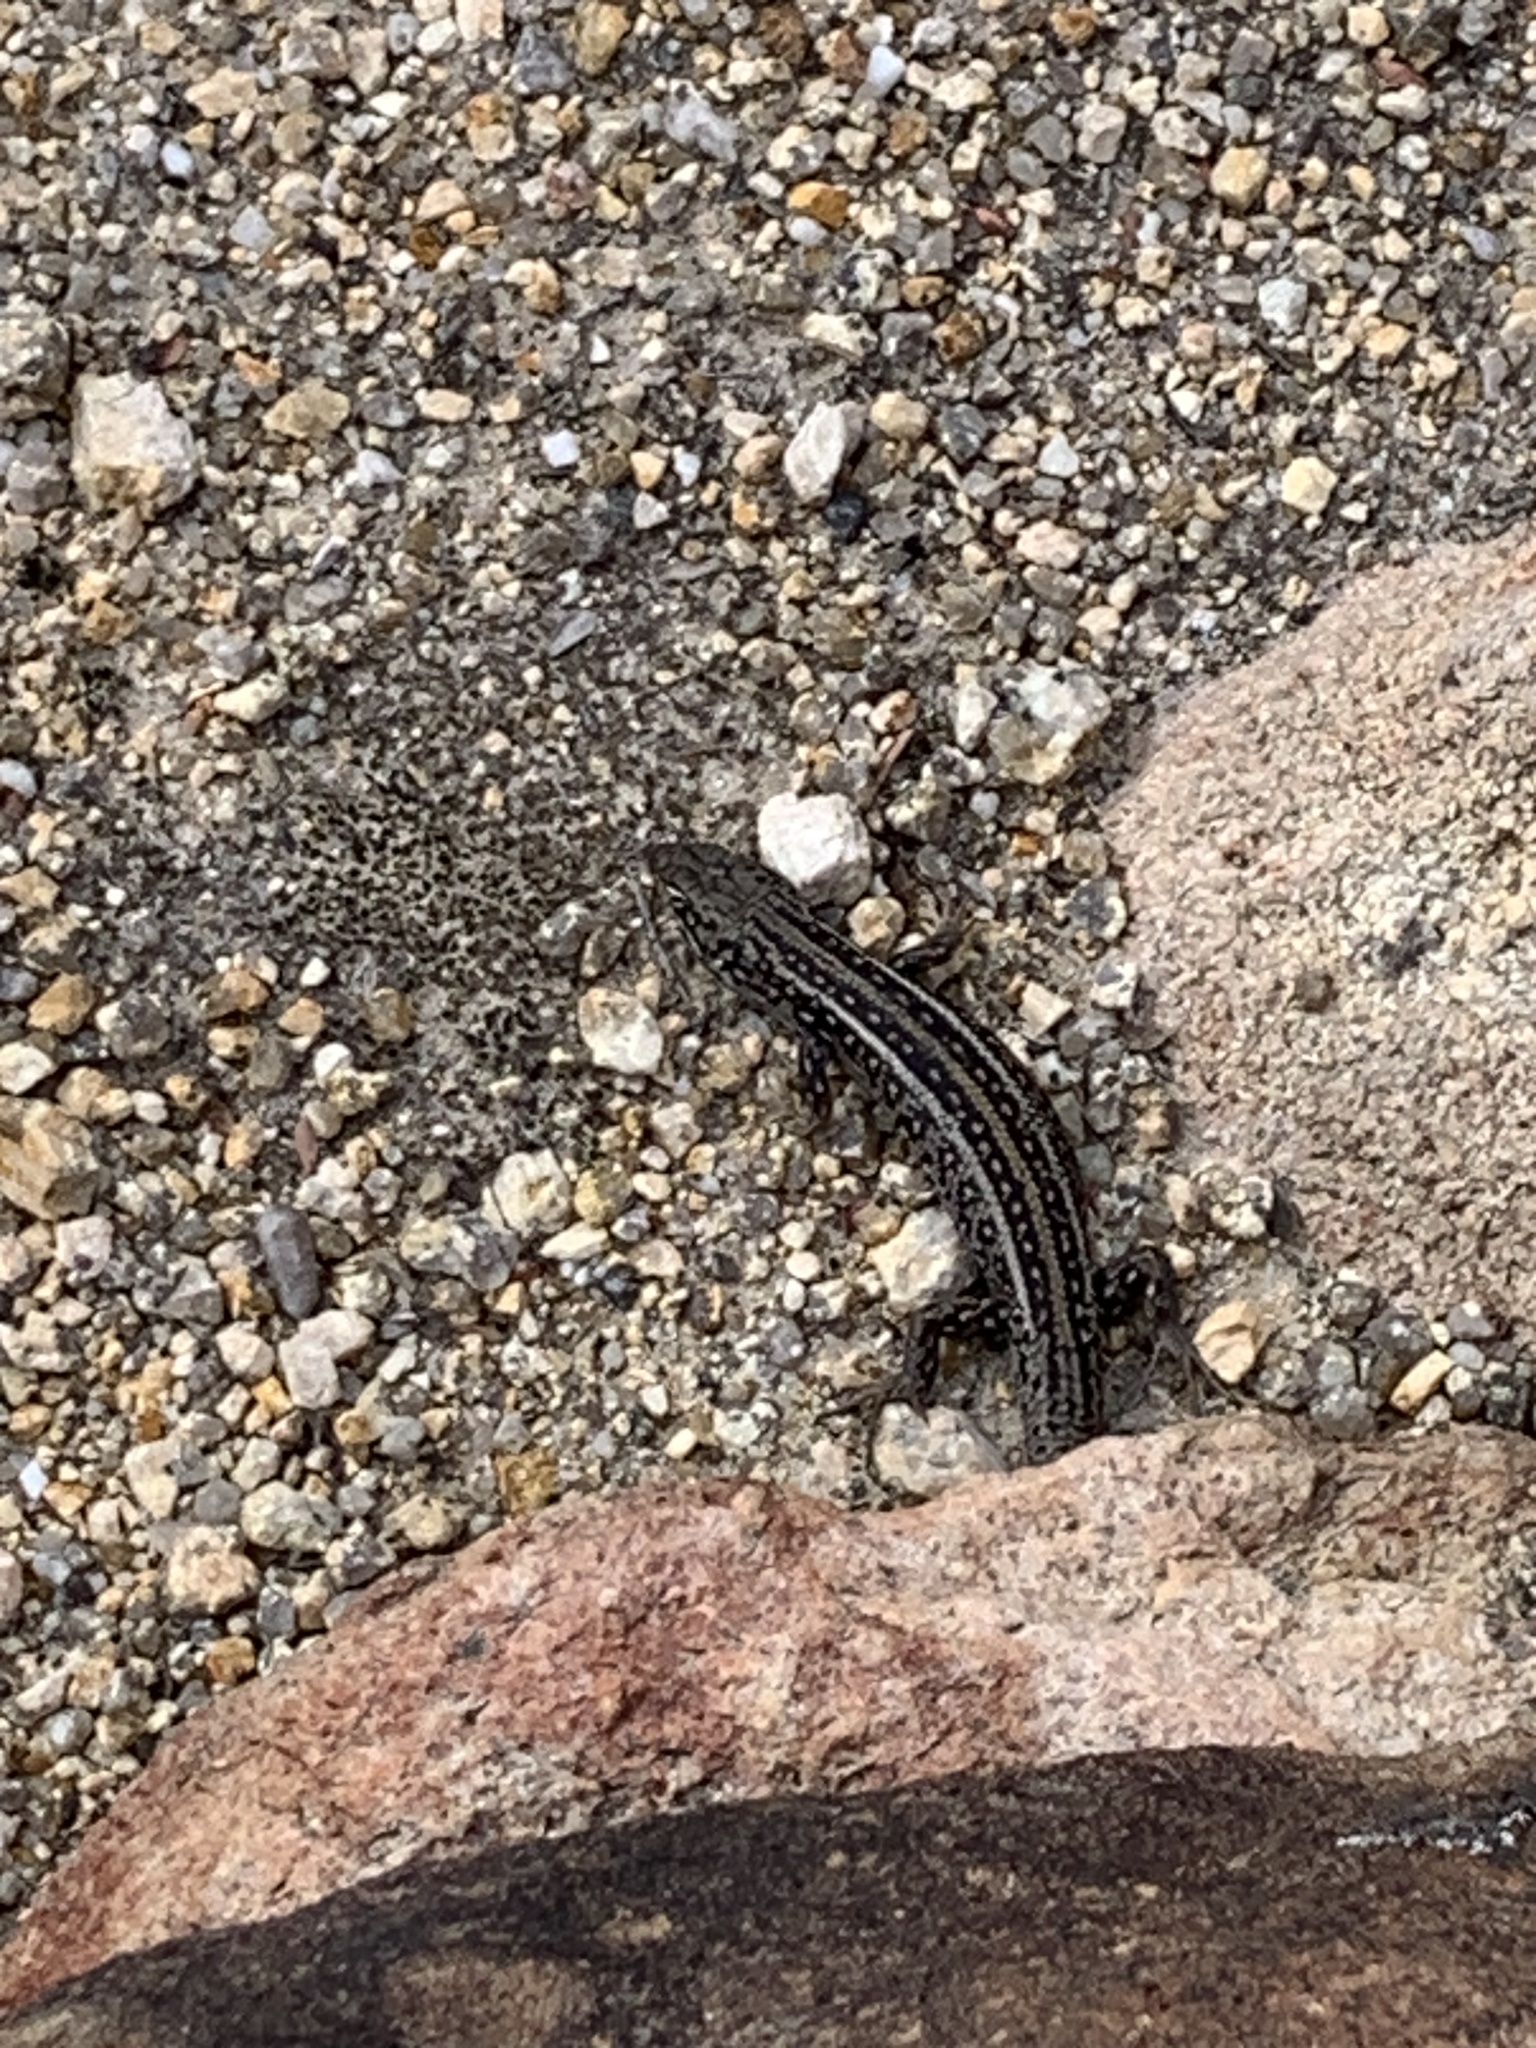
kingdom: Animalia
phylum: Chordata
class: Squamata
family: Scincidae
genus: Liopholis
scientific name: Liopholis whitii
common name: White's rock-skink
